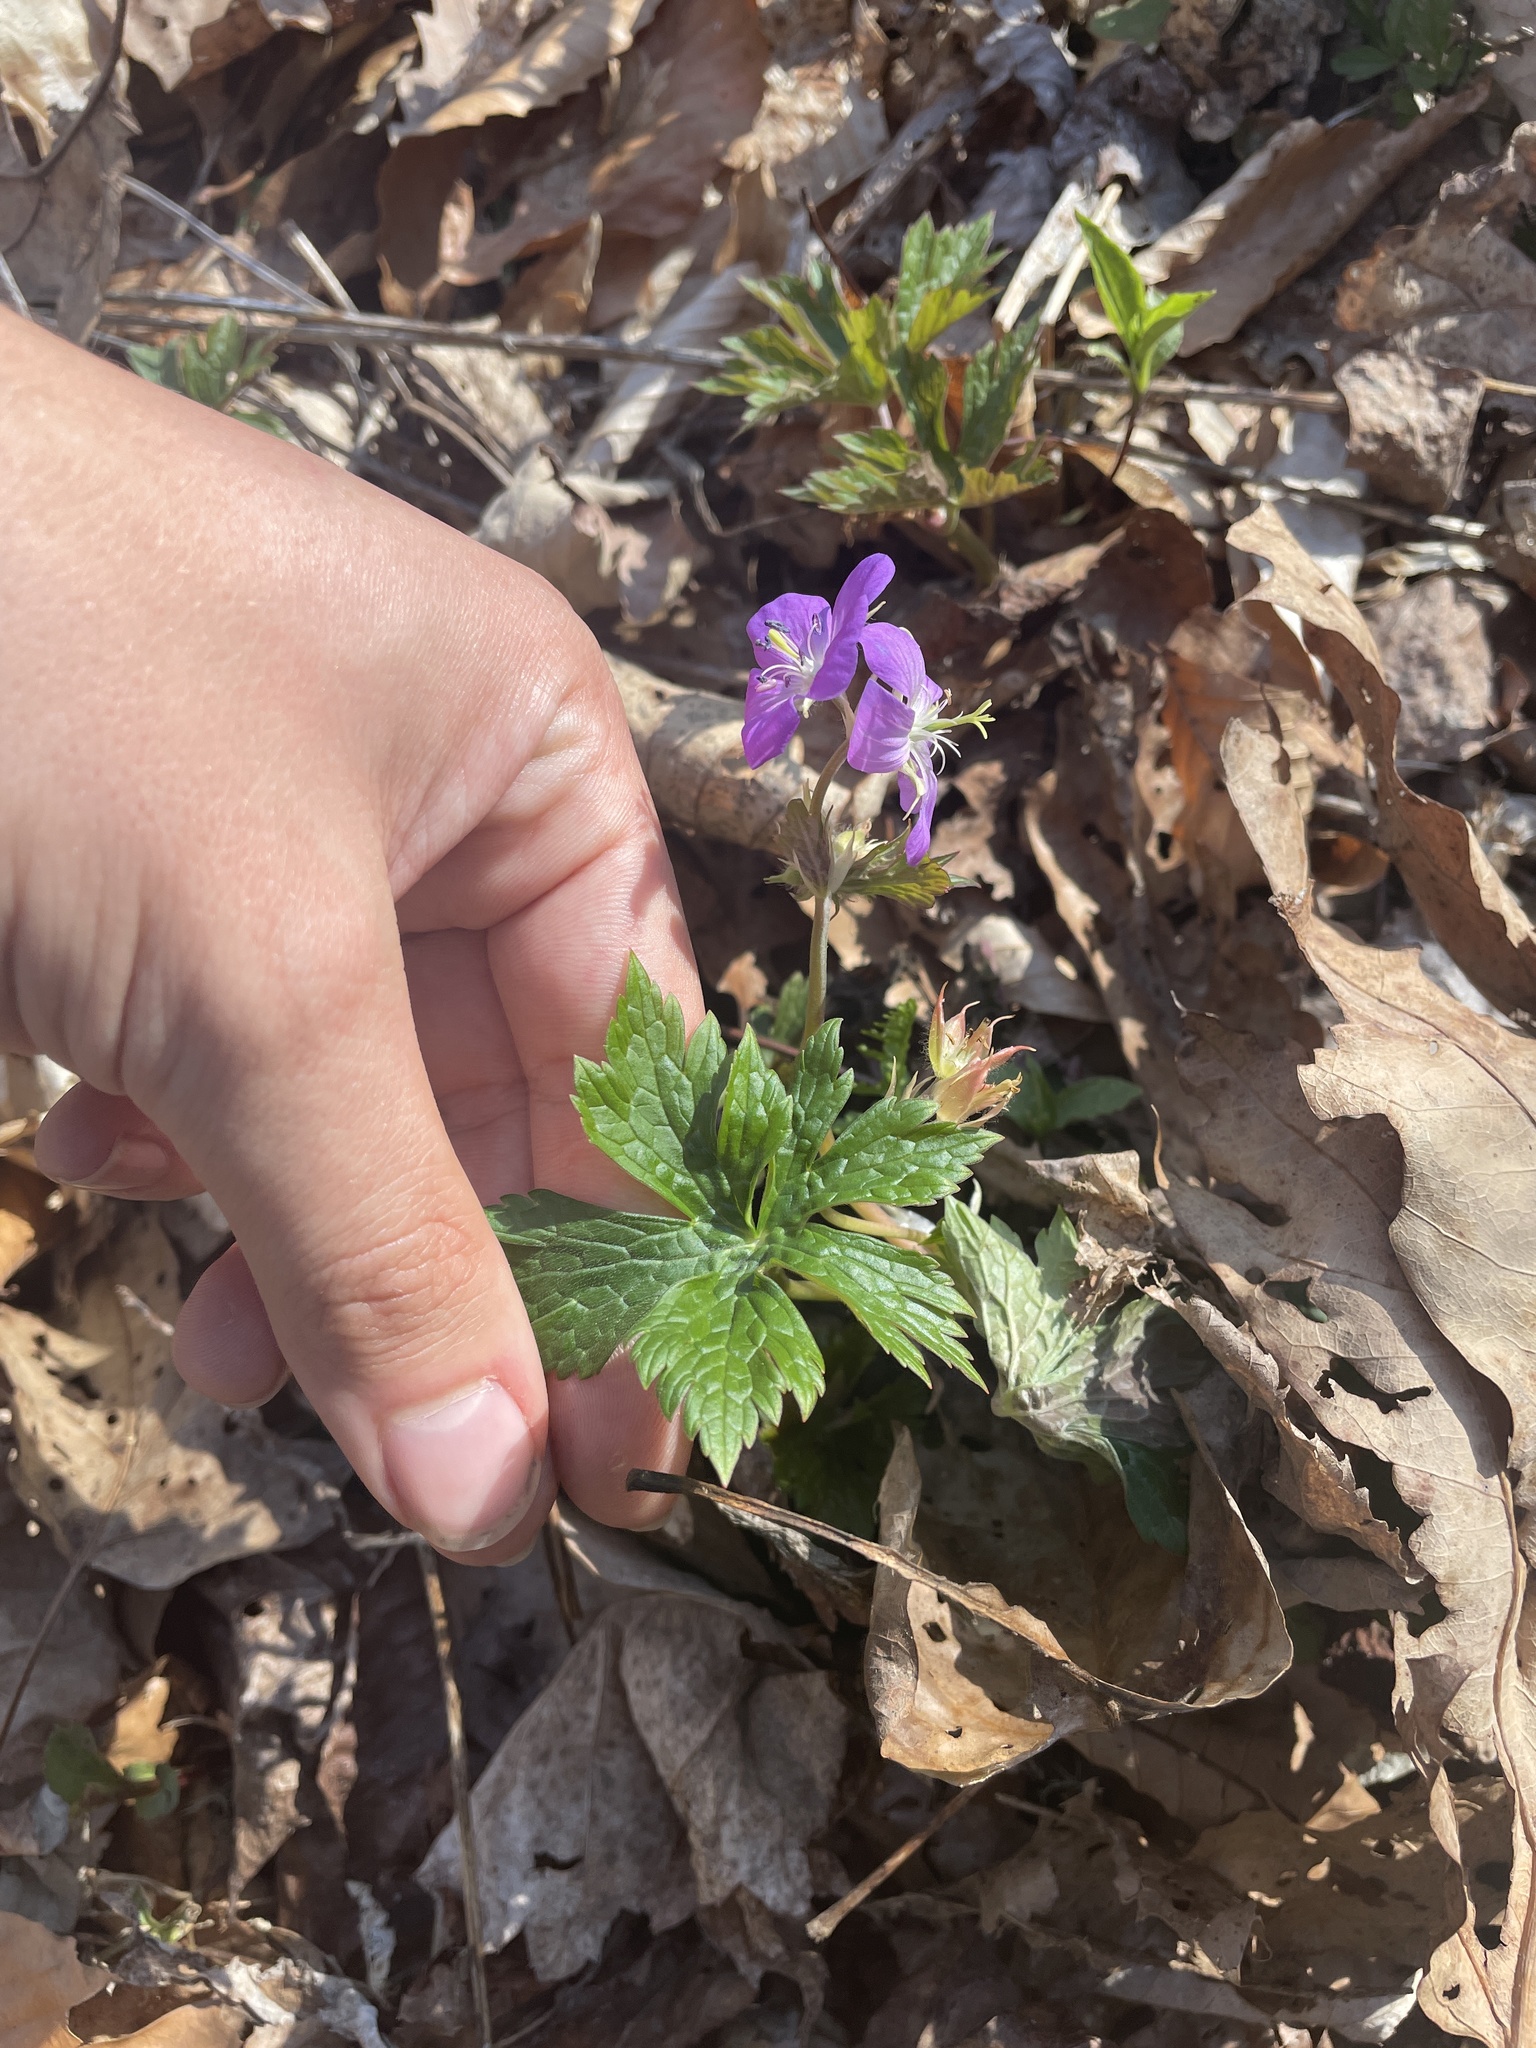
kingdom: Plantae
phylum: Tracheophyta
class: Magnoliopsida
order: Geraniales
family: Geraniaceae
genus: Geranium
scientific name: Geranium maculatum
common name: Spotted geranium
